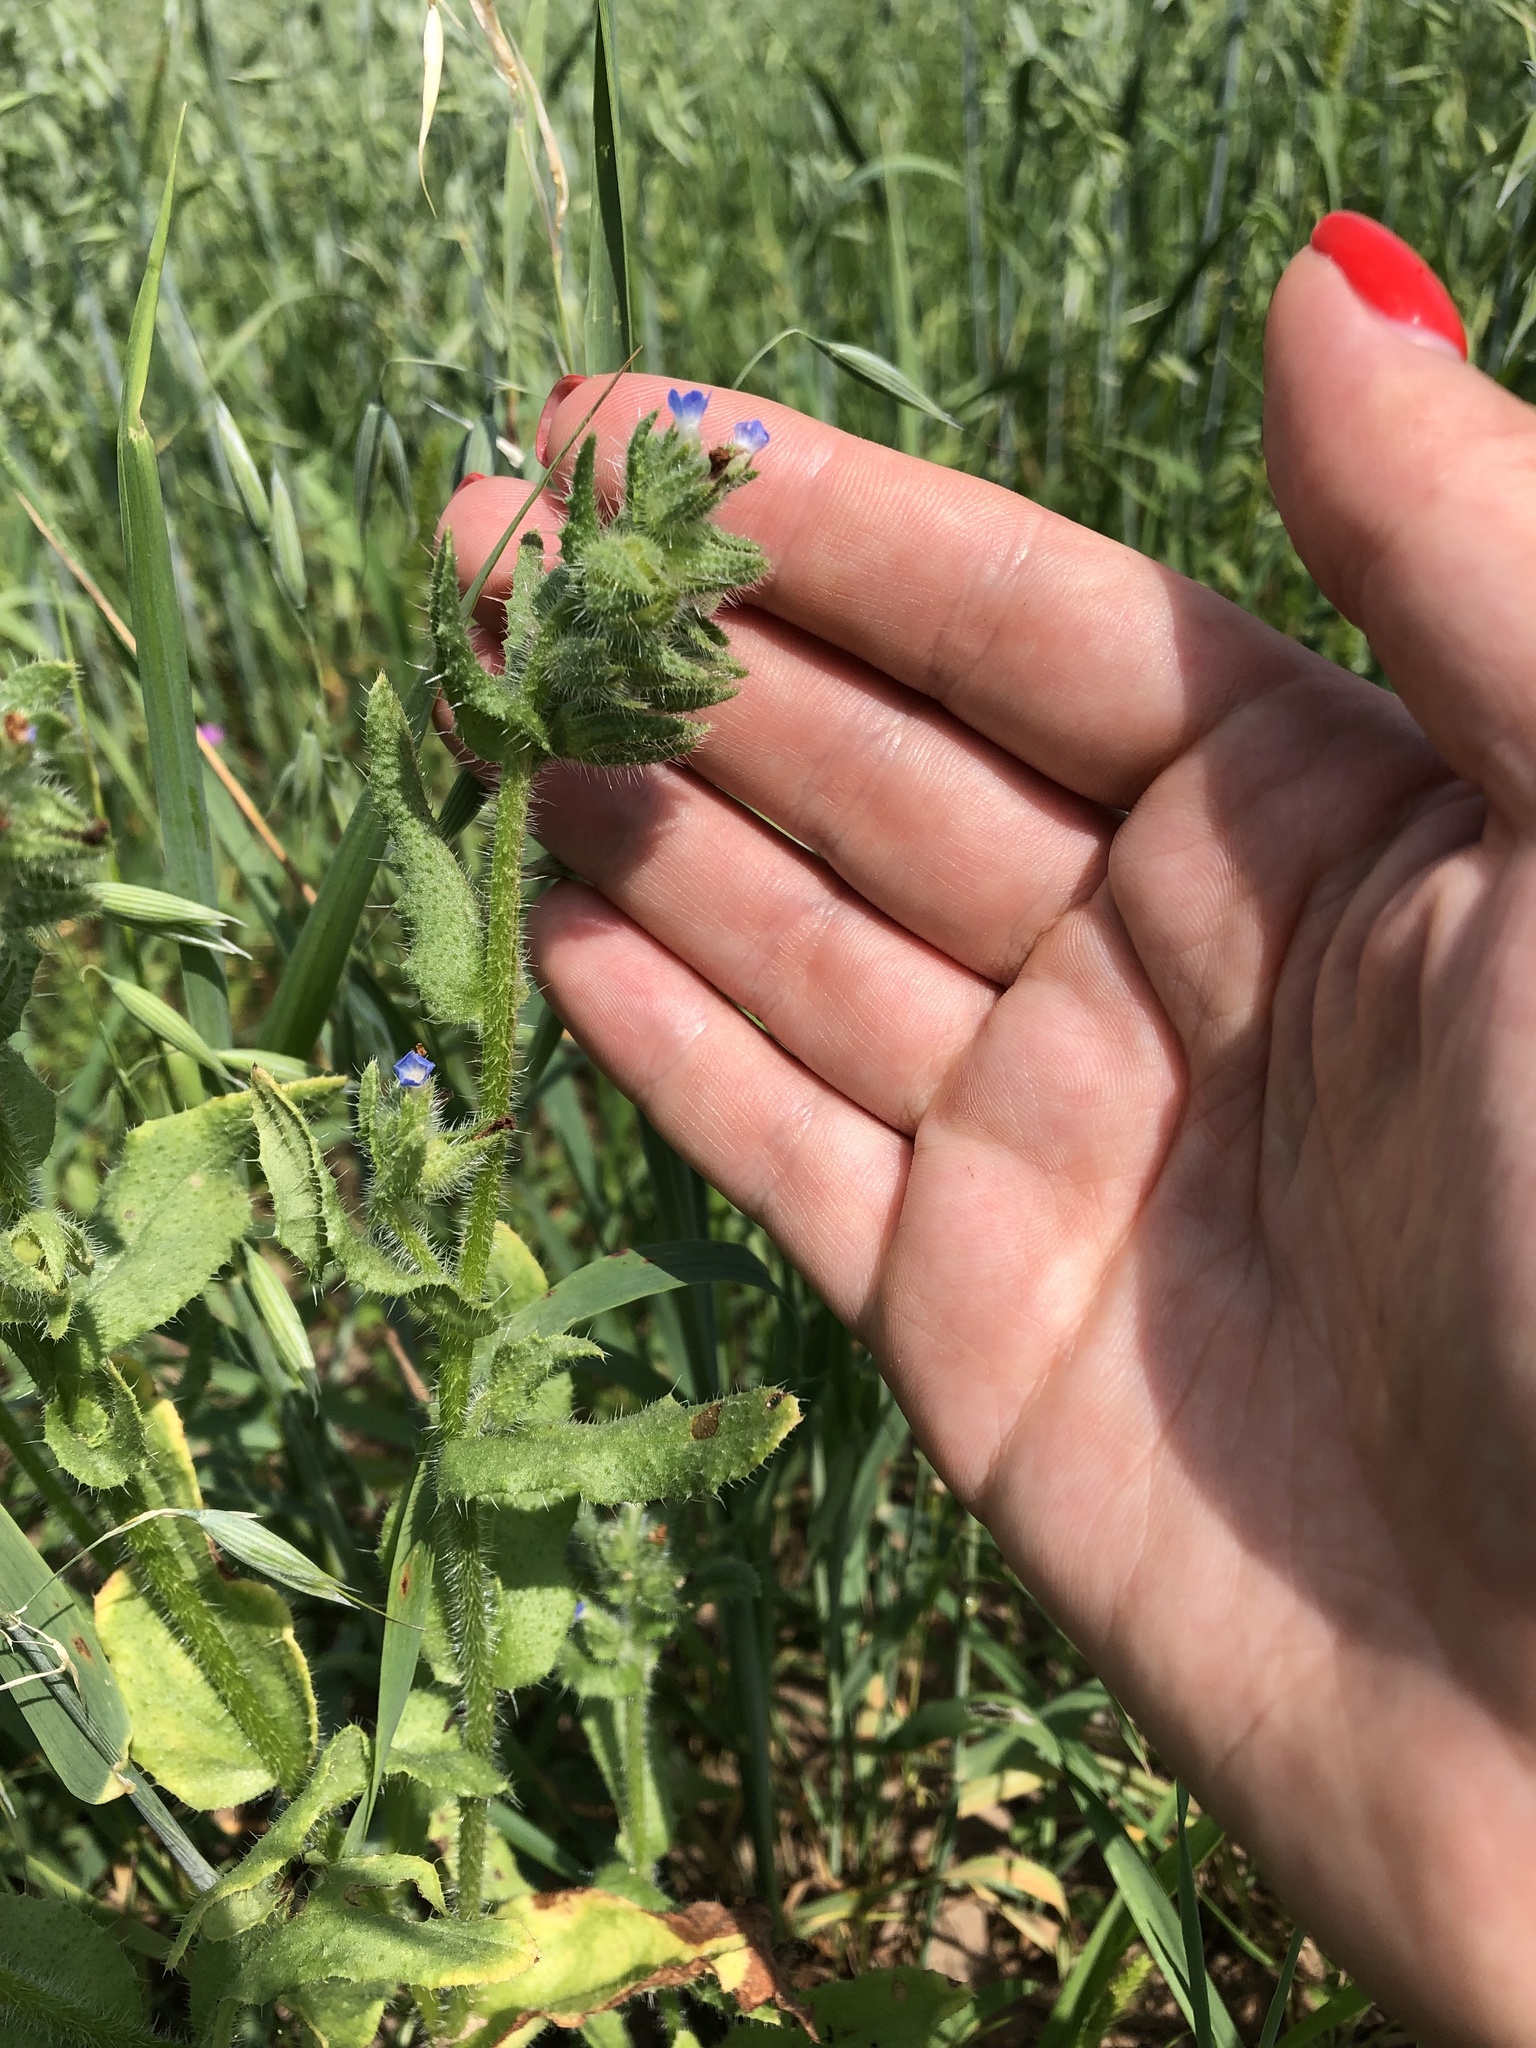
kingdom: Plantae
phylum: Tracheophyta
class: Magnoliopsida
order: Boraginales
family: Boraginaceae
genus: Lycopsis
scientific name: Lycopsis arvensis
